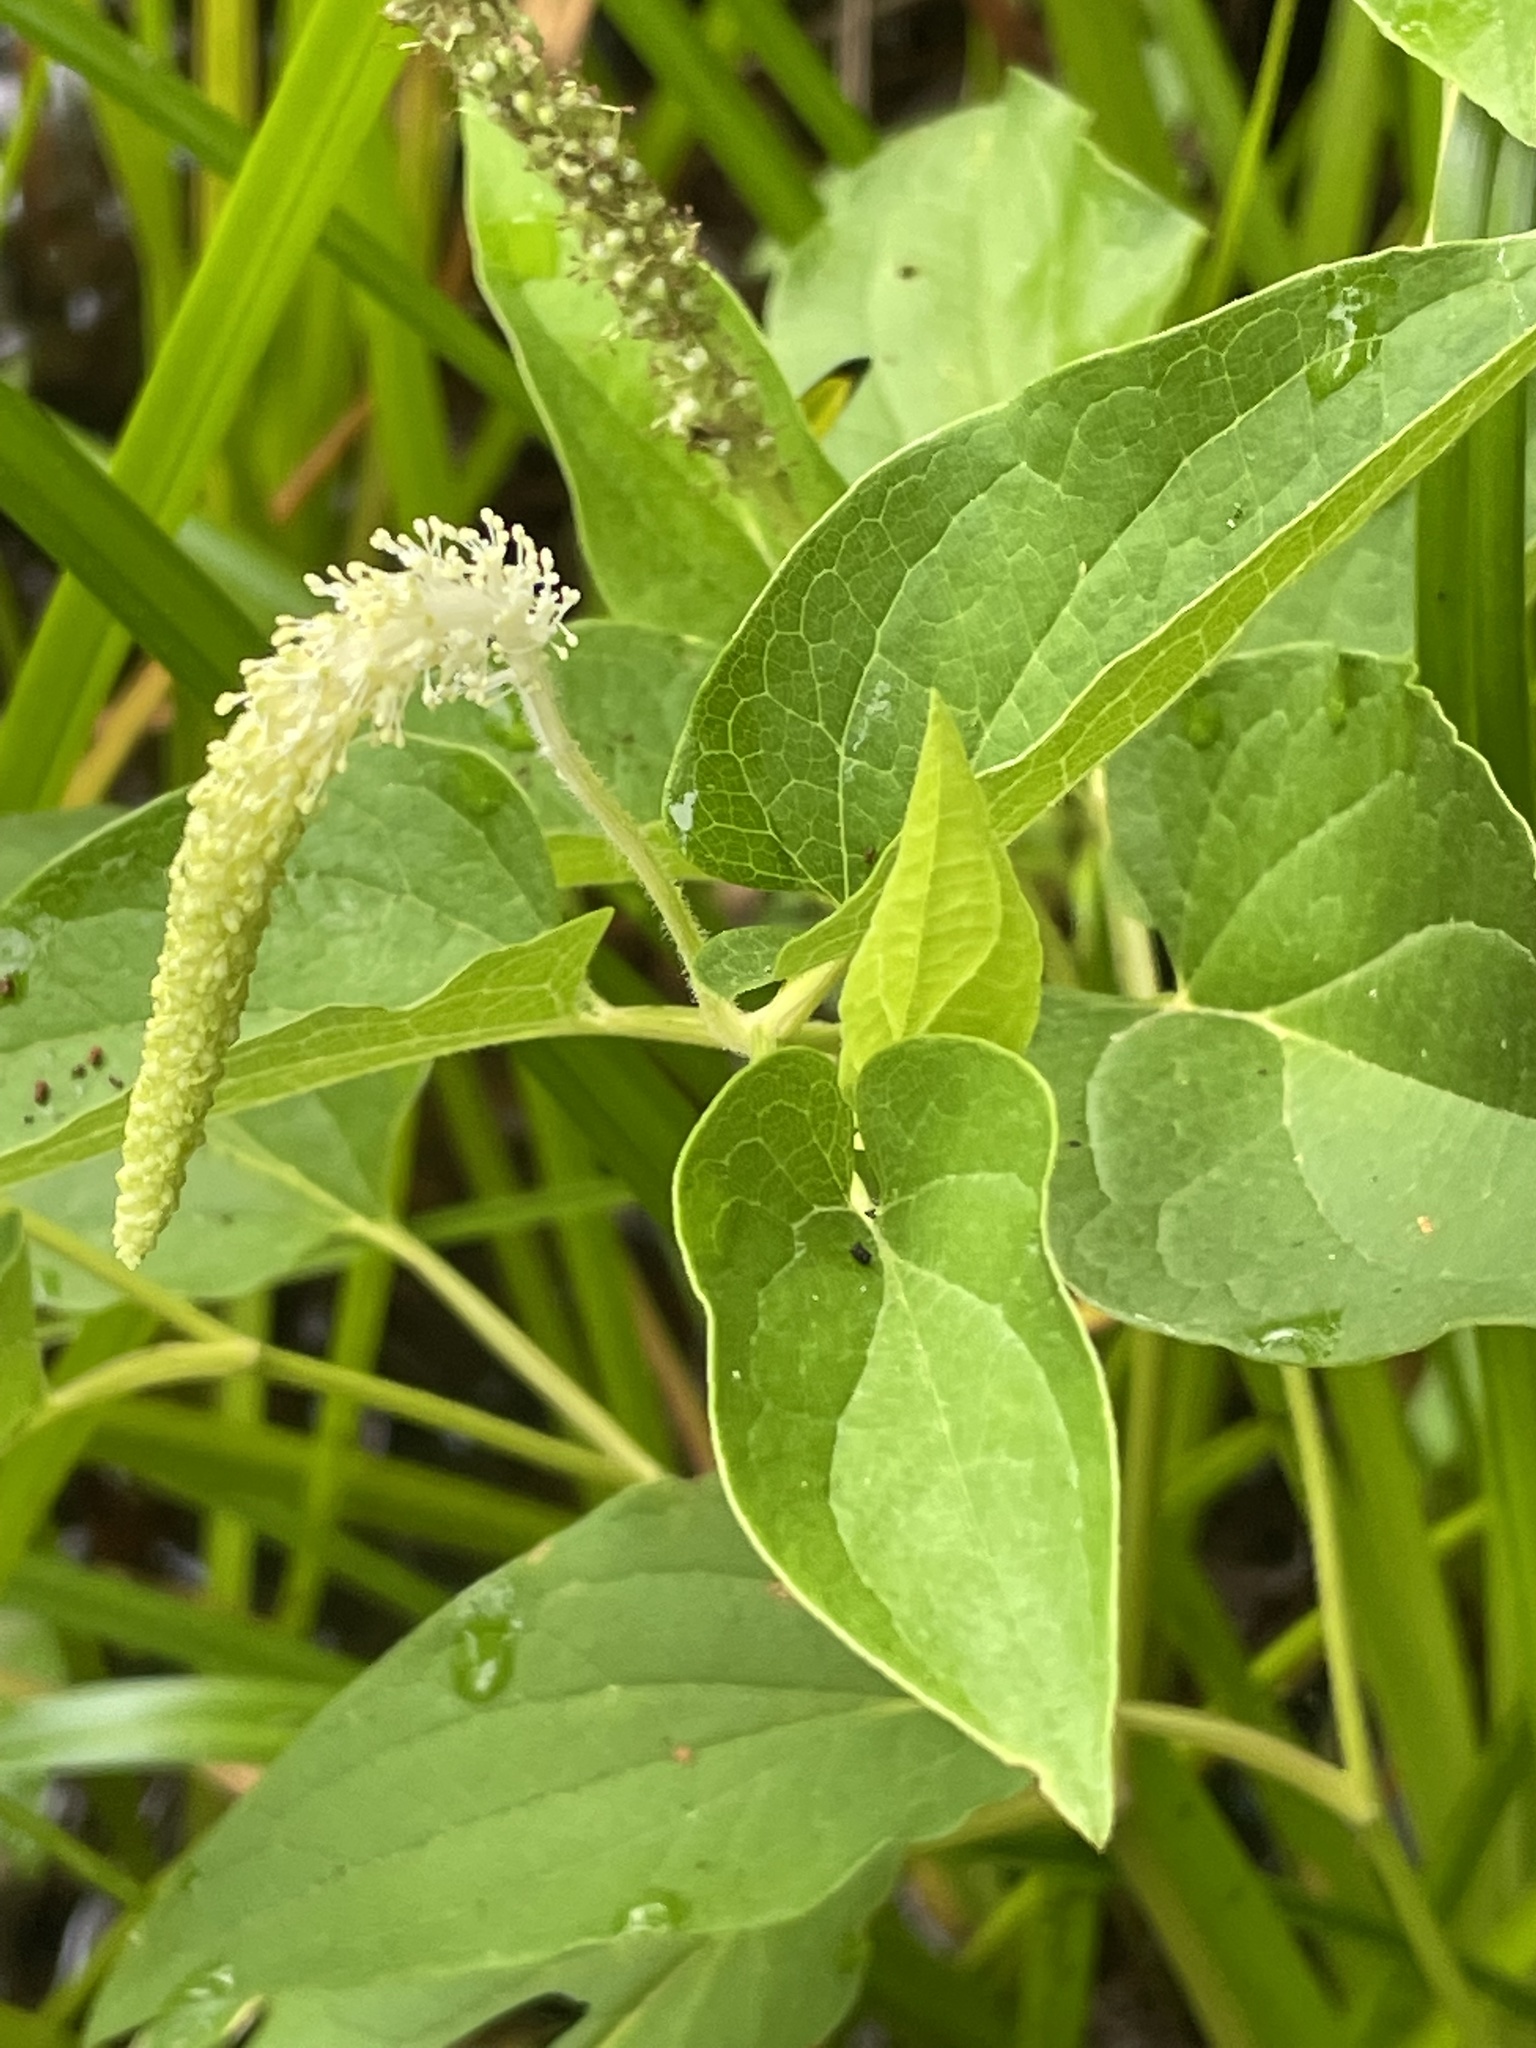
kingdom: Plantae
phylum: Tracheophyta
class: Magnoliopsida
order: Piperales
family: Saururaceae
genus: Saururus
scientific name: Saururus cernuus
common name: Lizard's-tail
